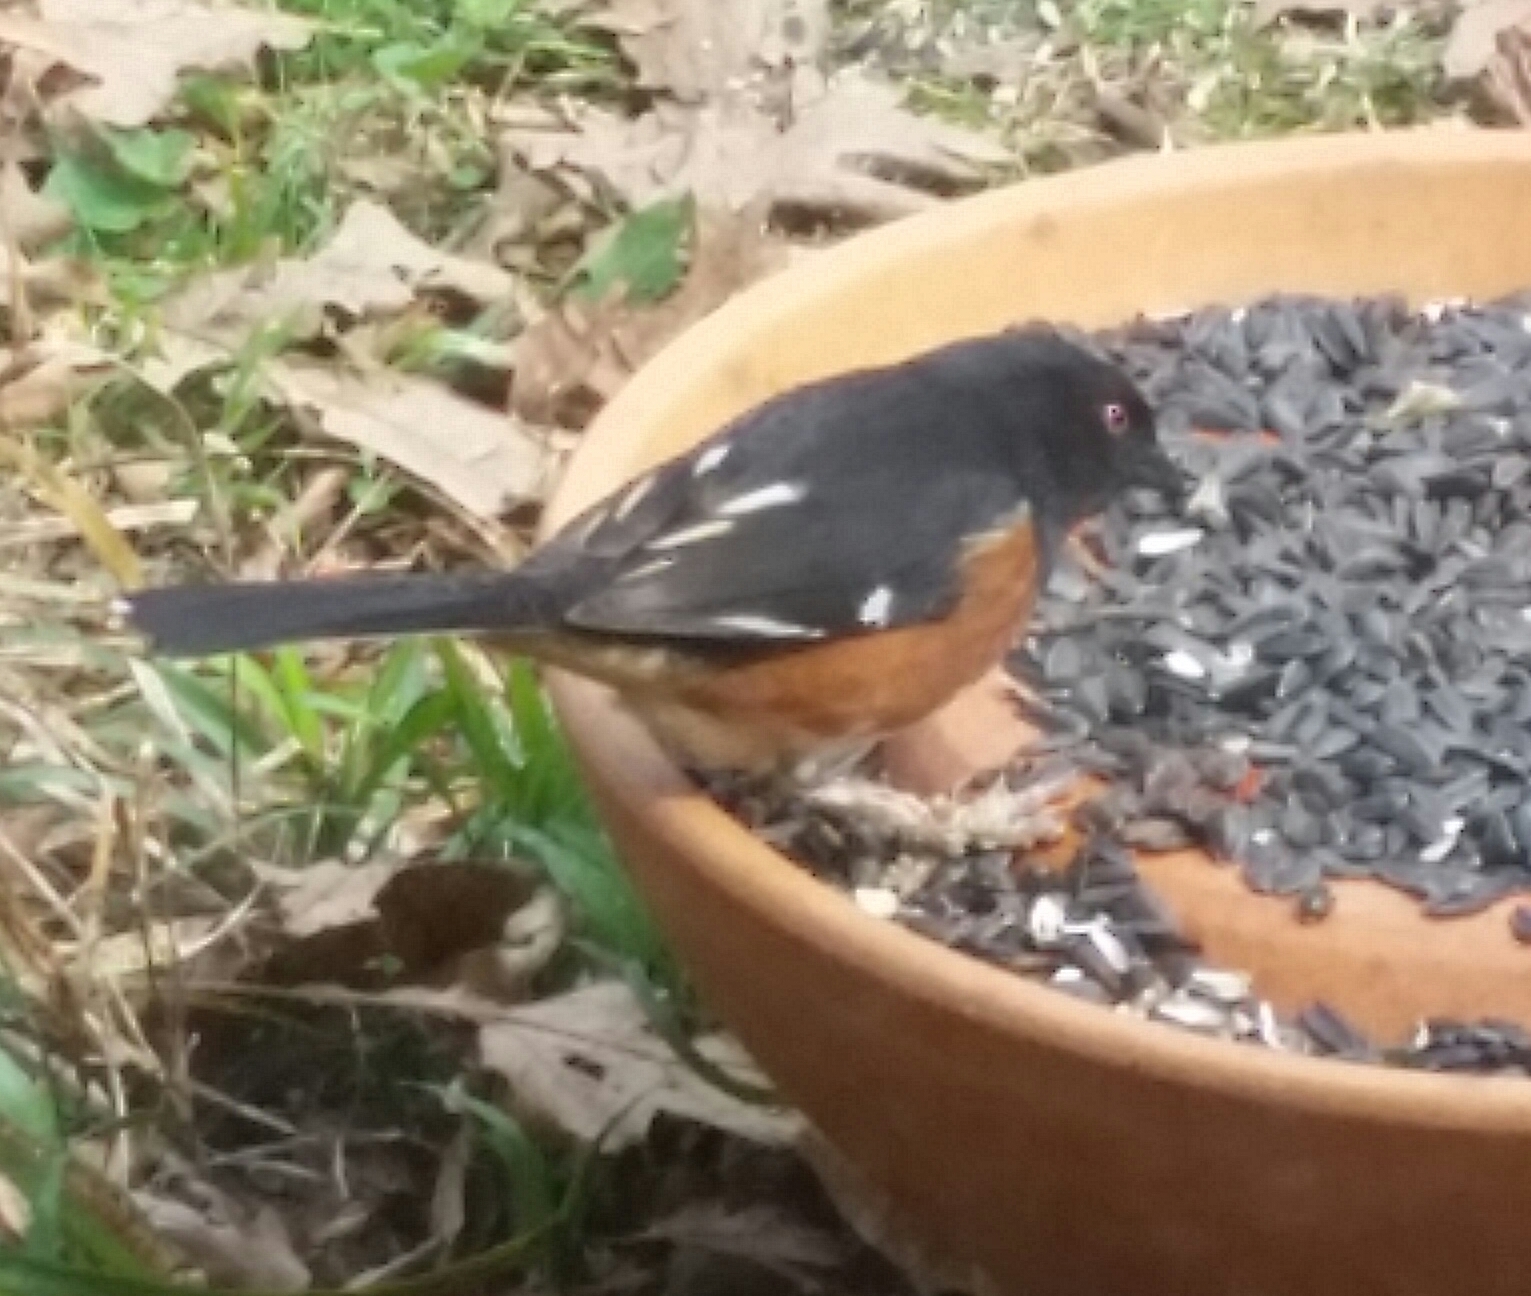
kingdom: Animalia
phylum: Chordata
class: Aves
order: Passeriformes
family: Passerellidae
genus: Pipilo
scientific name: Pipilo erythrophthalmus
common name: Eastern towhee
